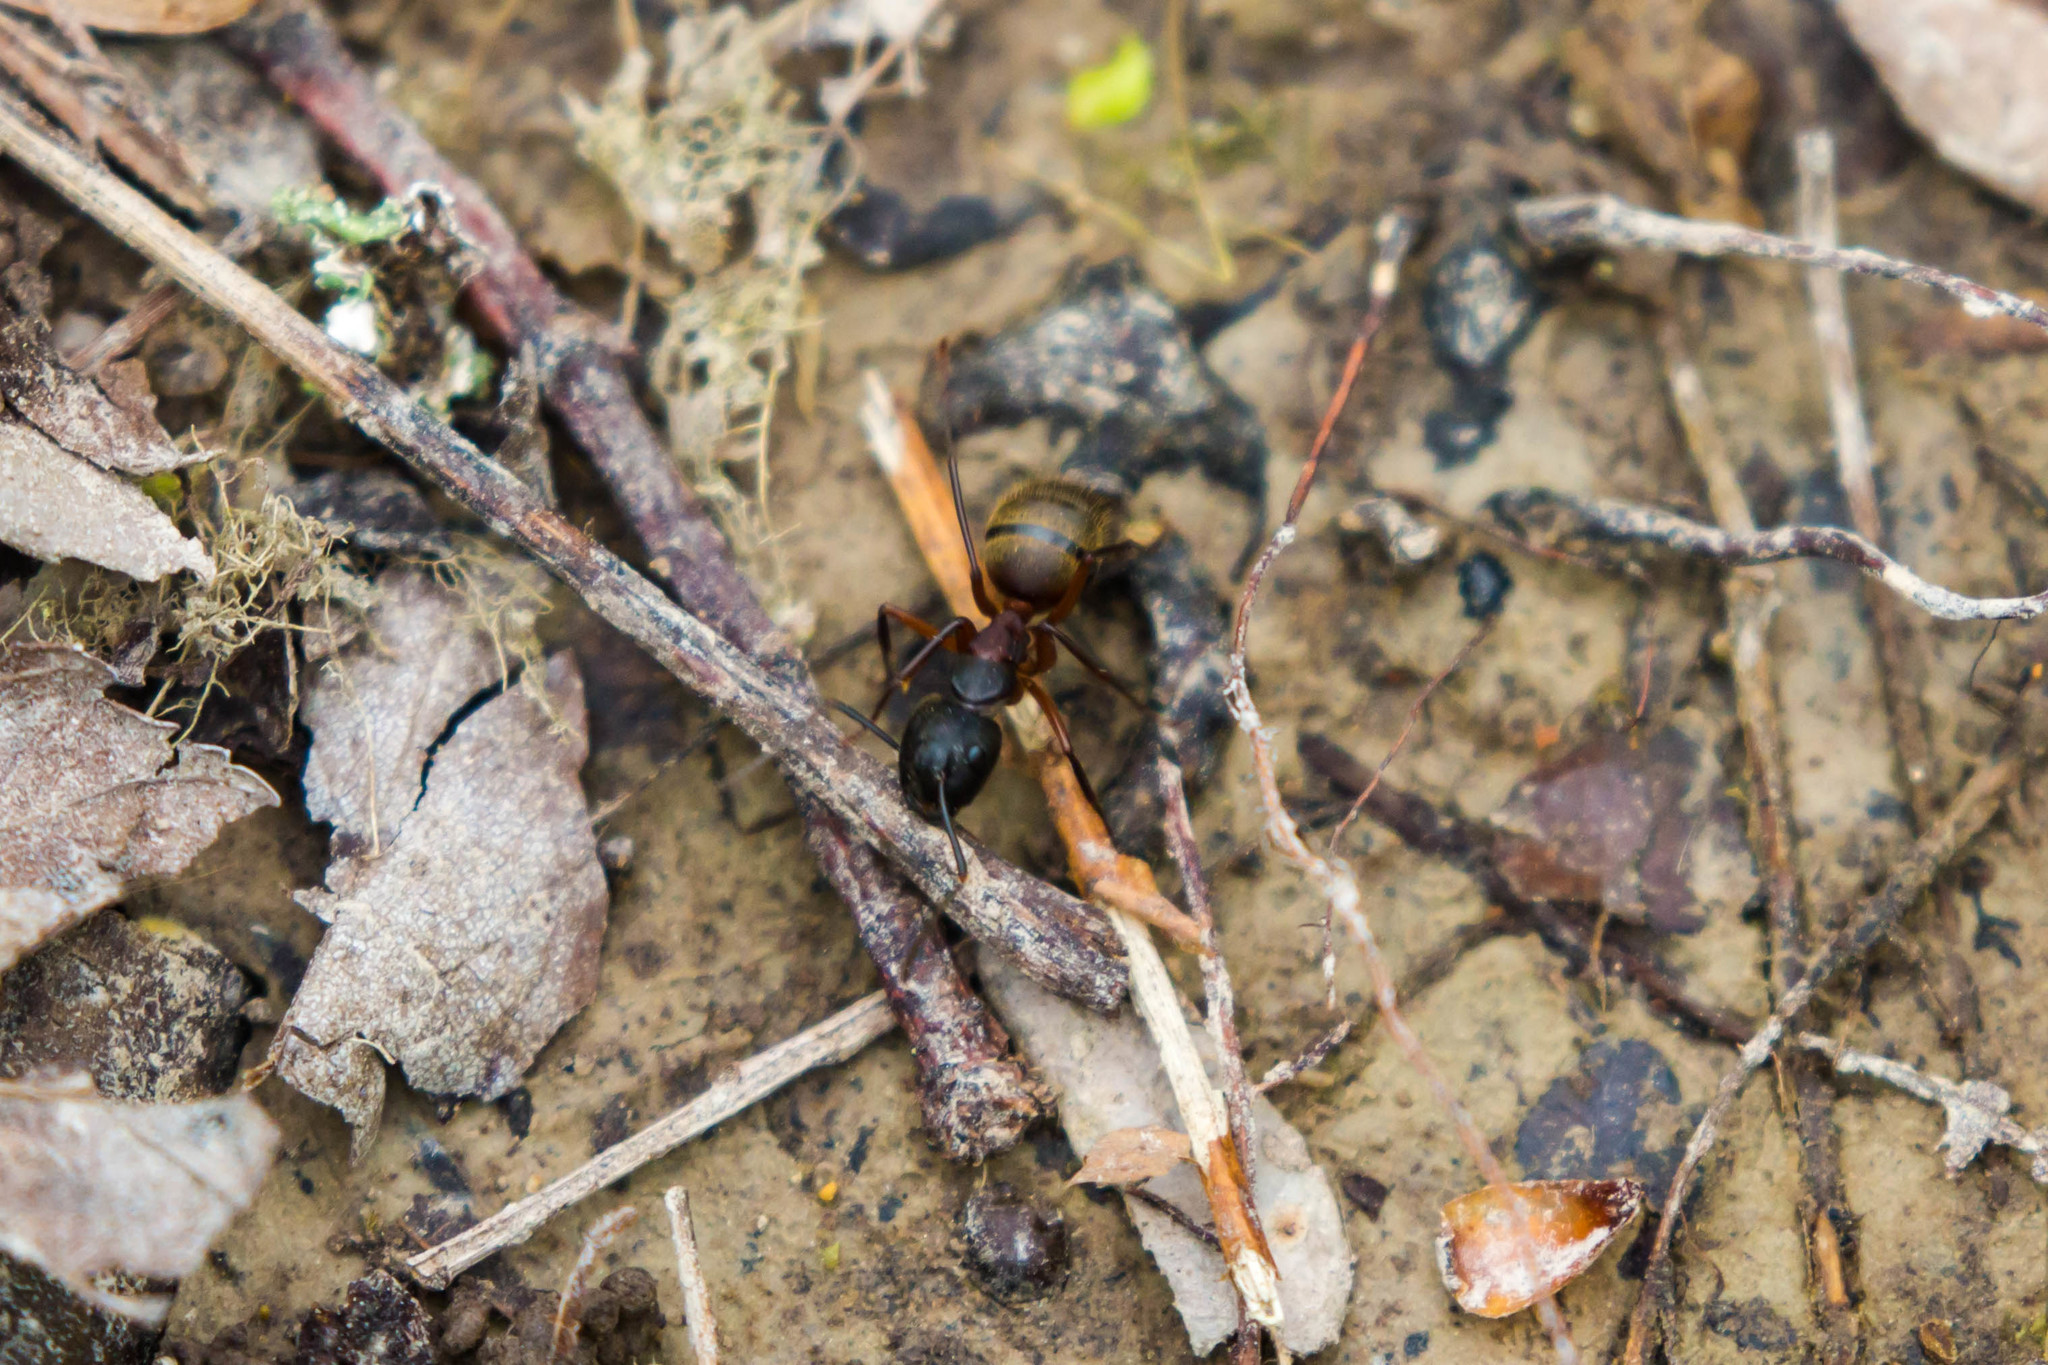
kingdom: Animalia
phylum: Arthropoda
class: Insecta
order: Hymenoptera
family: Formicidae
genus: Camponotus
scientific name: Camponotus chromaiodes
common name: Red carpenter ant
